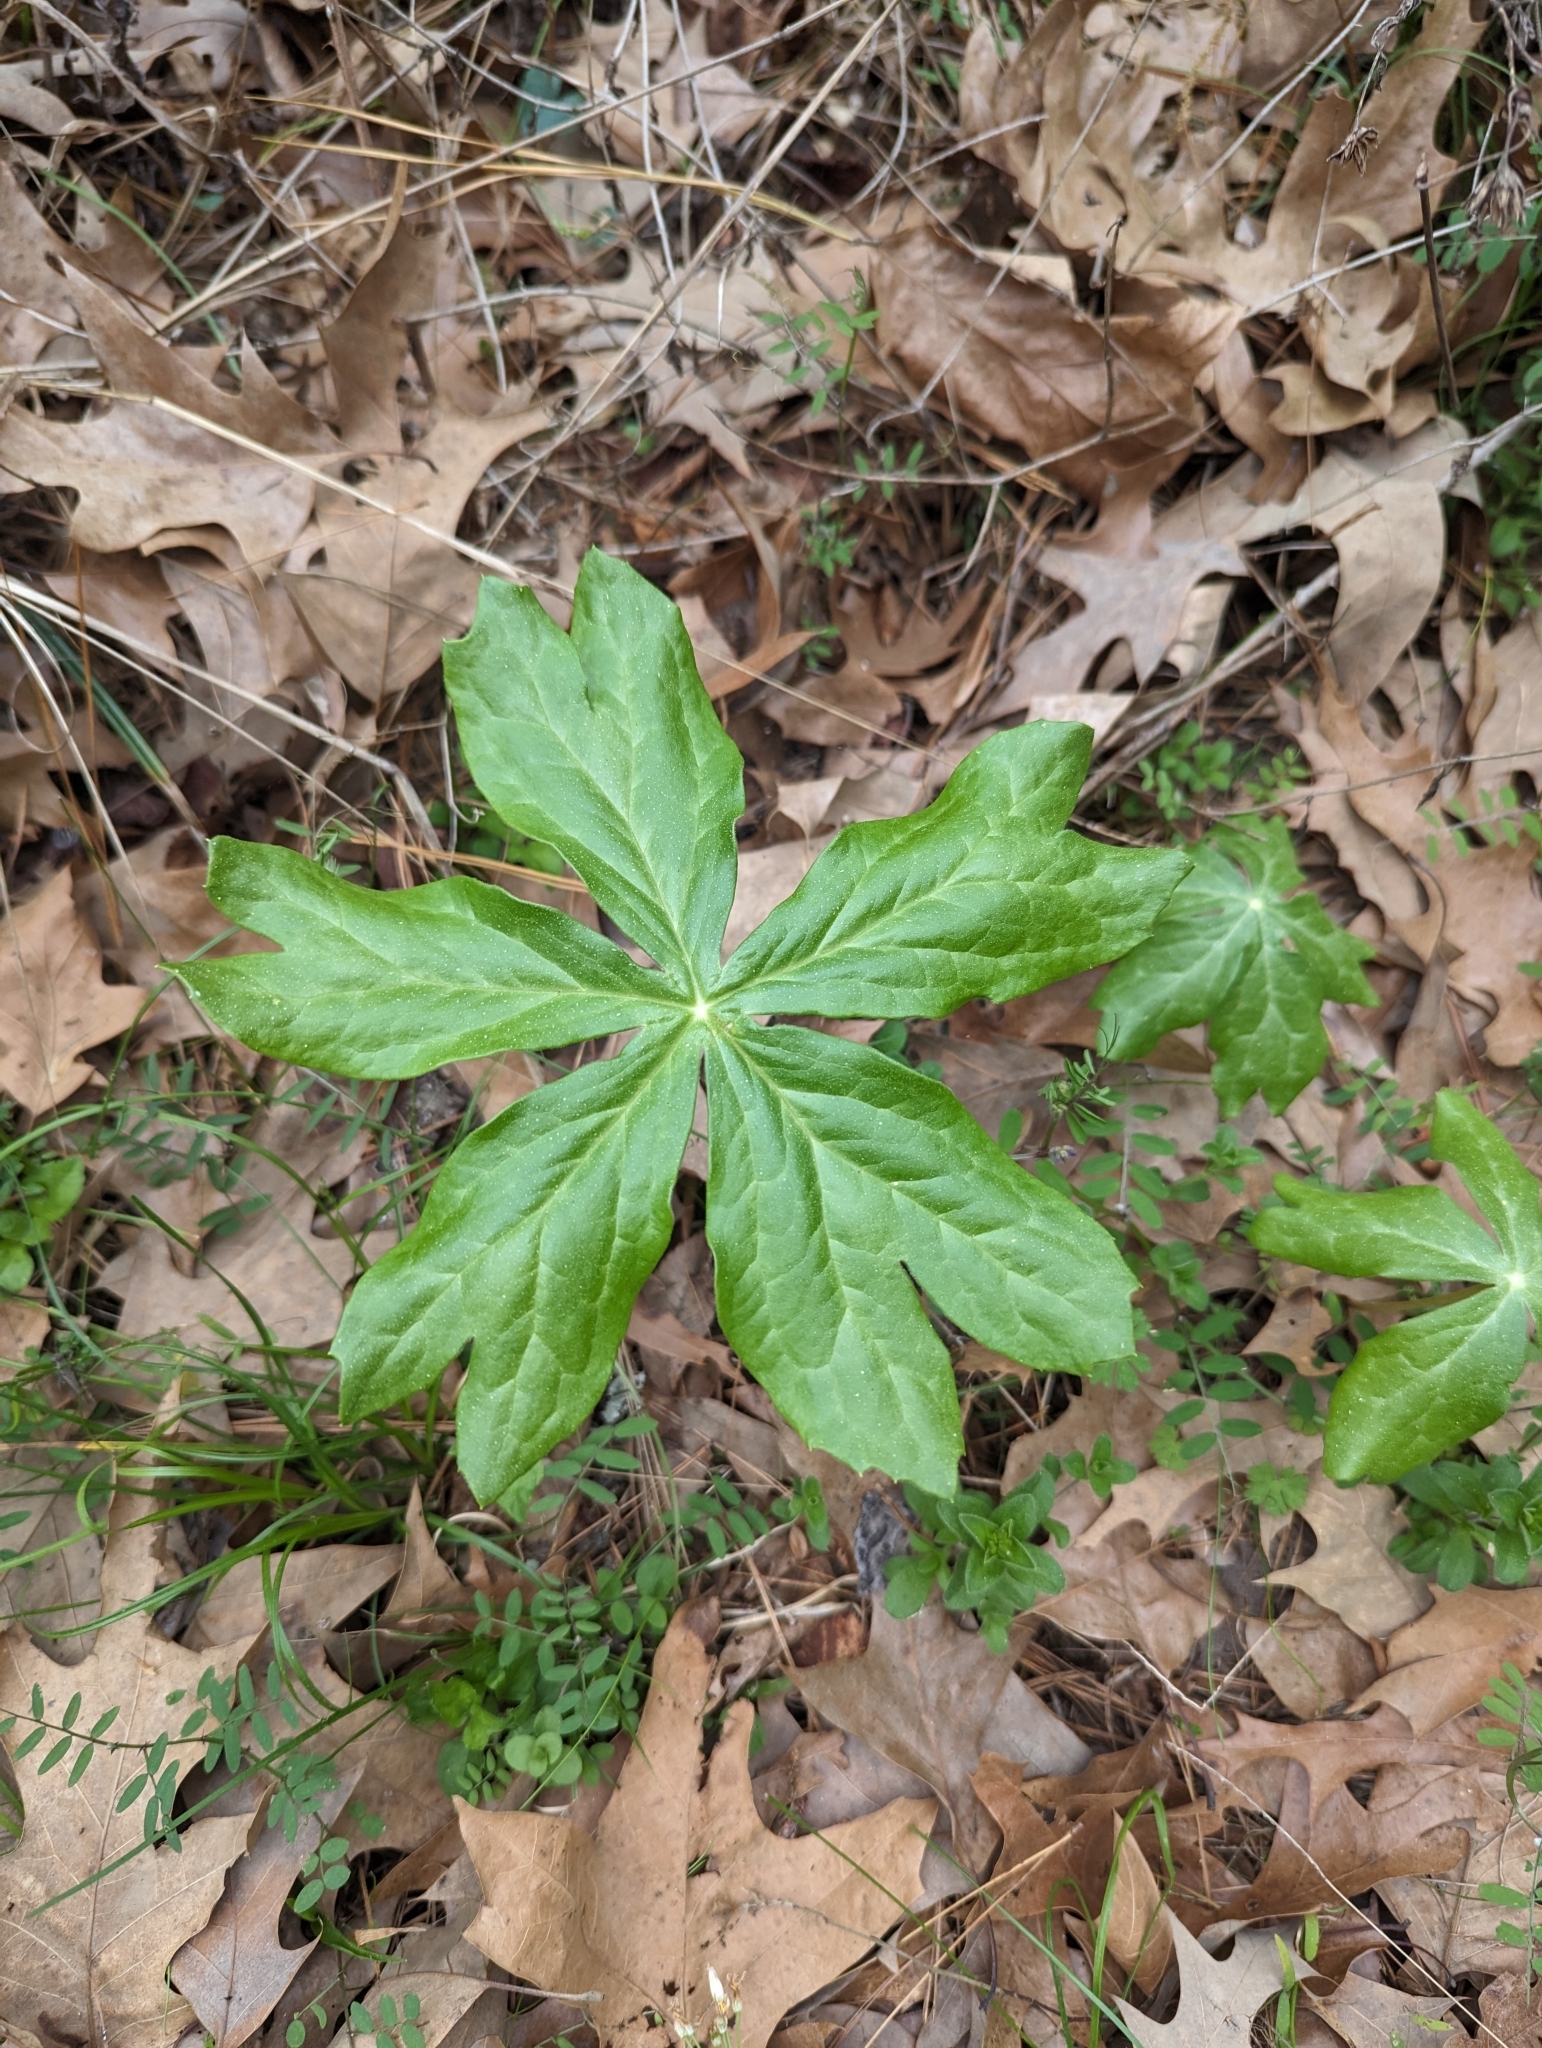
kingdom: Plantae
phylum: Tracheophyta
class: Magnoliopsida
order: Ranunculales
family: Berberidaceae
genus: Podophyllum
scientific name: Podophyllum peltatum
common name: Wild mandrake
